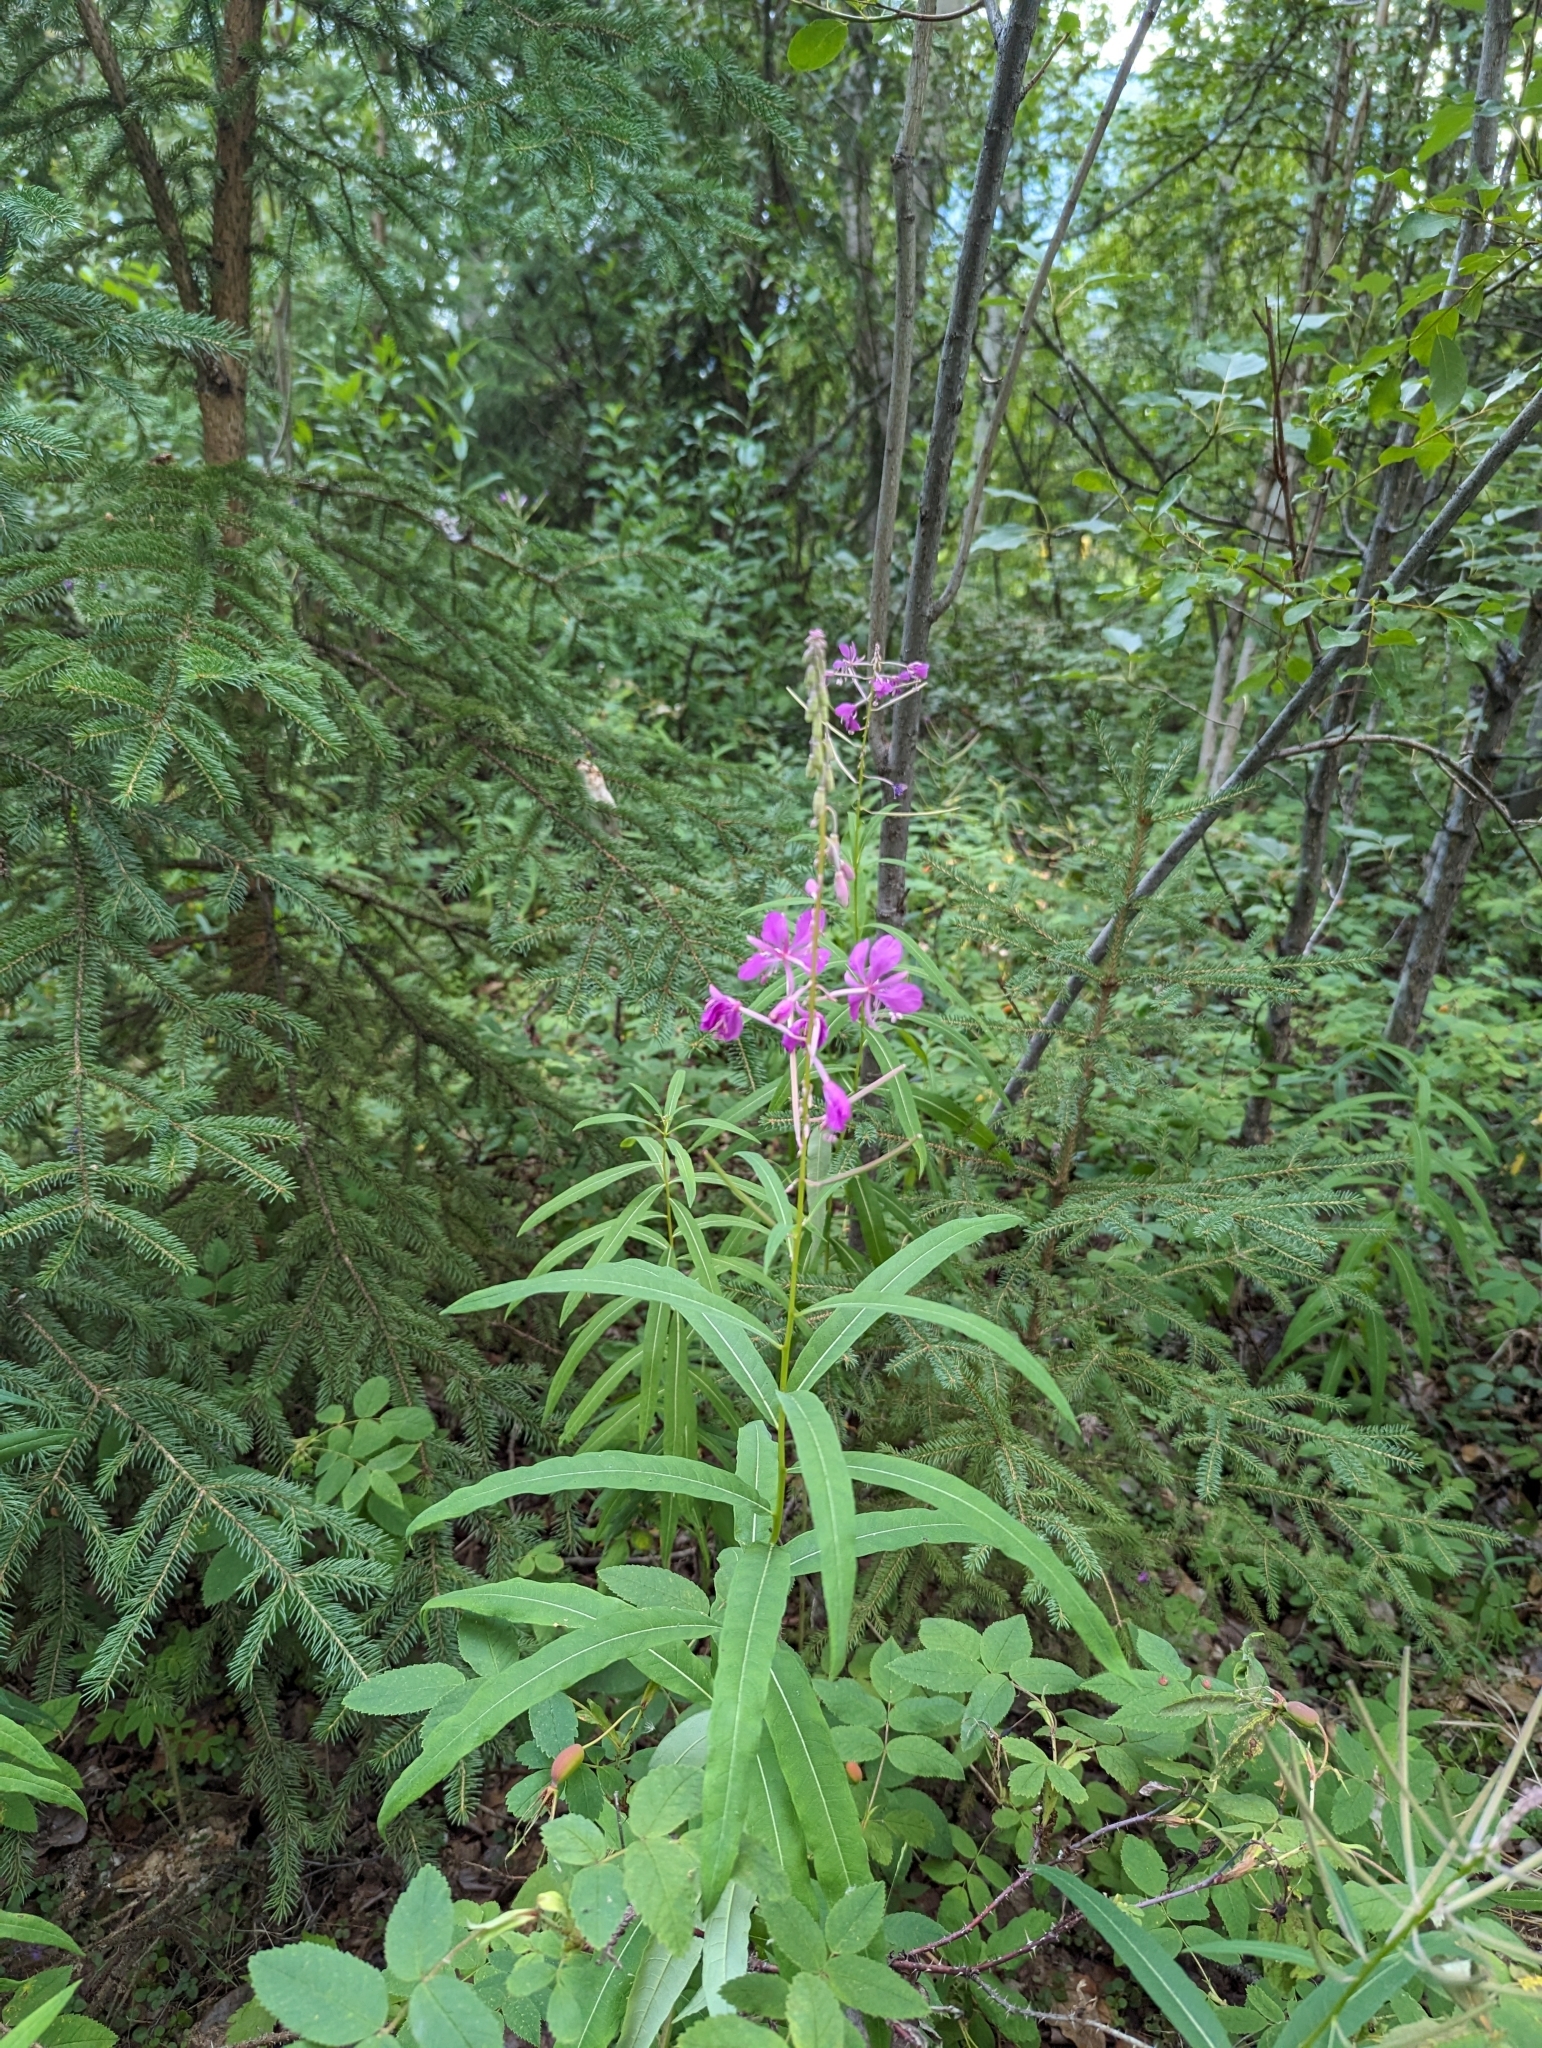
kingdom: Plantae
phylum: Tracheophyta
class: Magnoliopsida
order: Myrtales
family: Onagraceae
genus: Chamaenerion
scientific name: Chamaenerion angustifolium
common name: Fireweed
